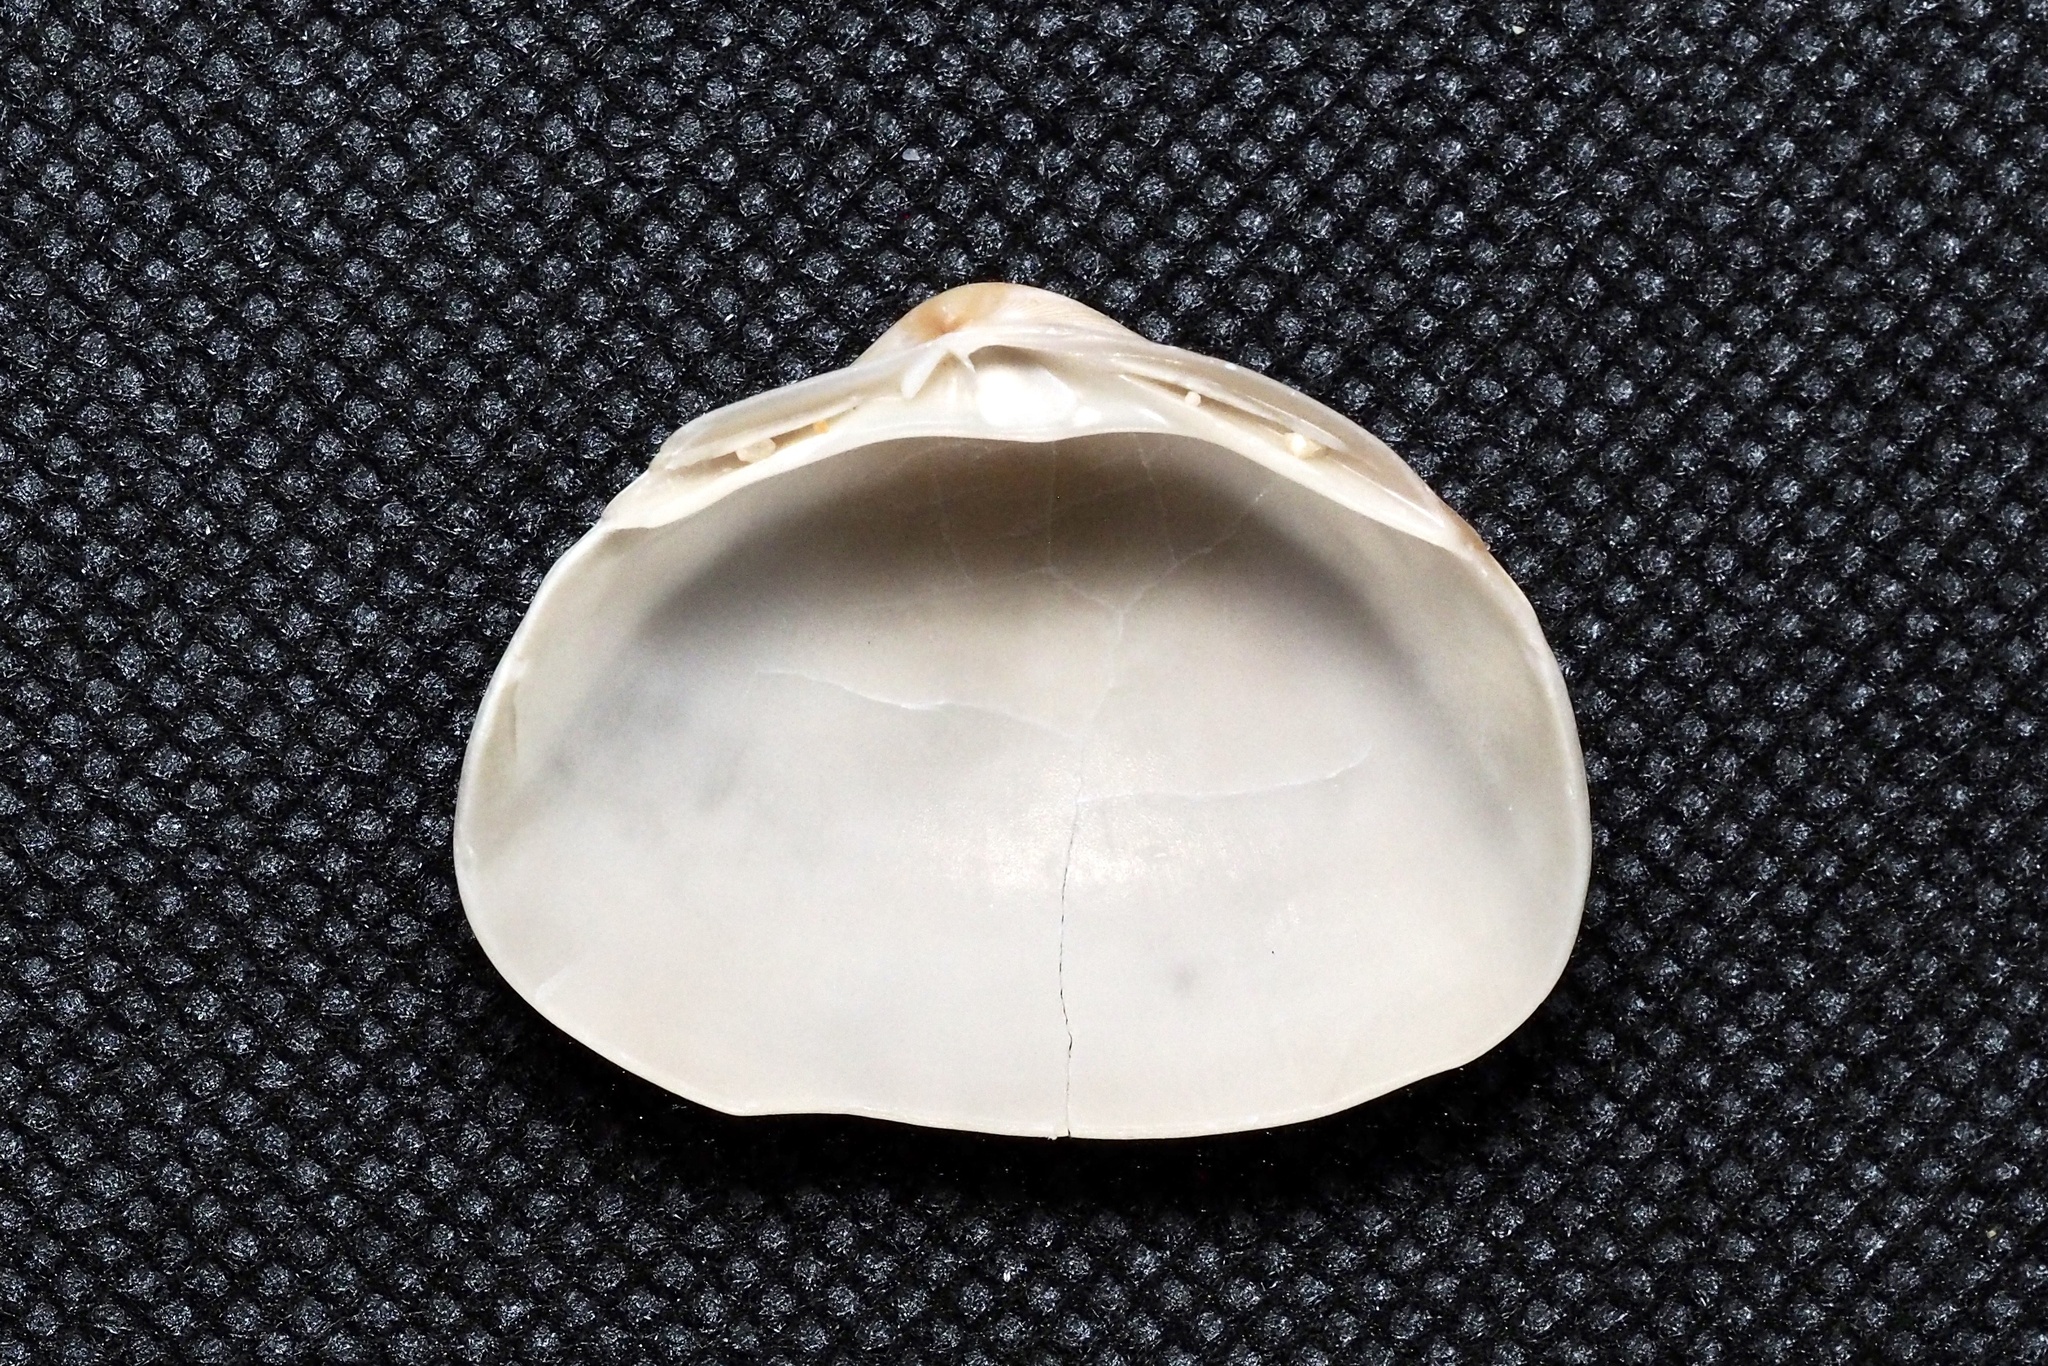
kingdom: Animalia
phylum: Mollusca
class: Bivalvia
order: Venerida
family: Mactridae
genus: Mactra
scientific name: Mactra chinensis
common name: Chinese surf clam
